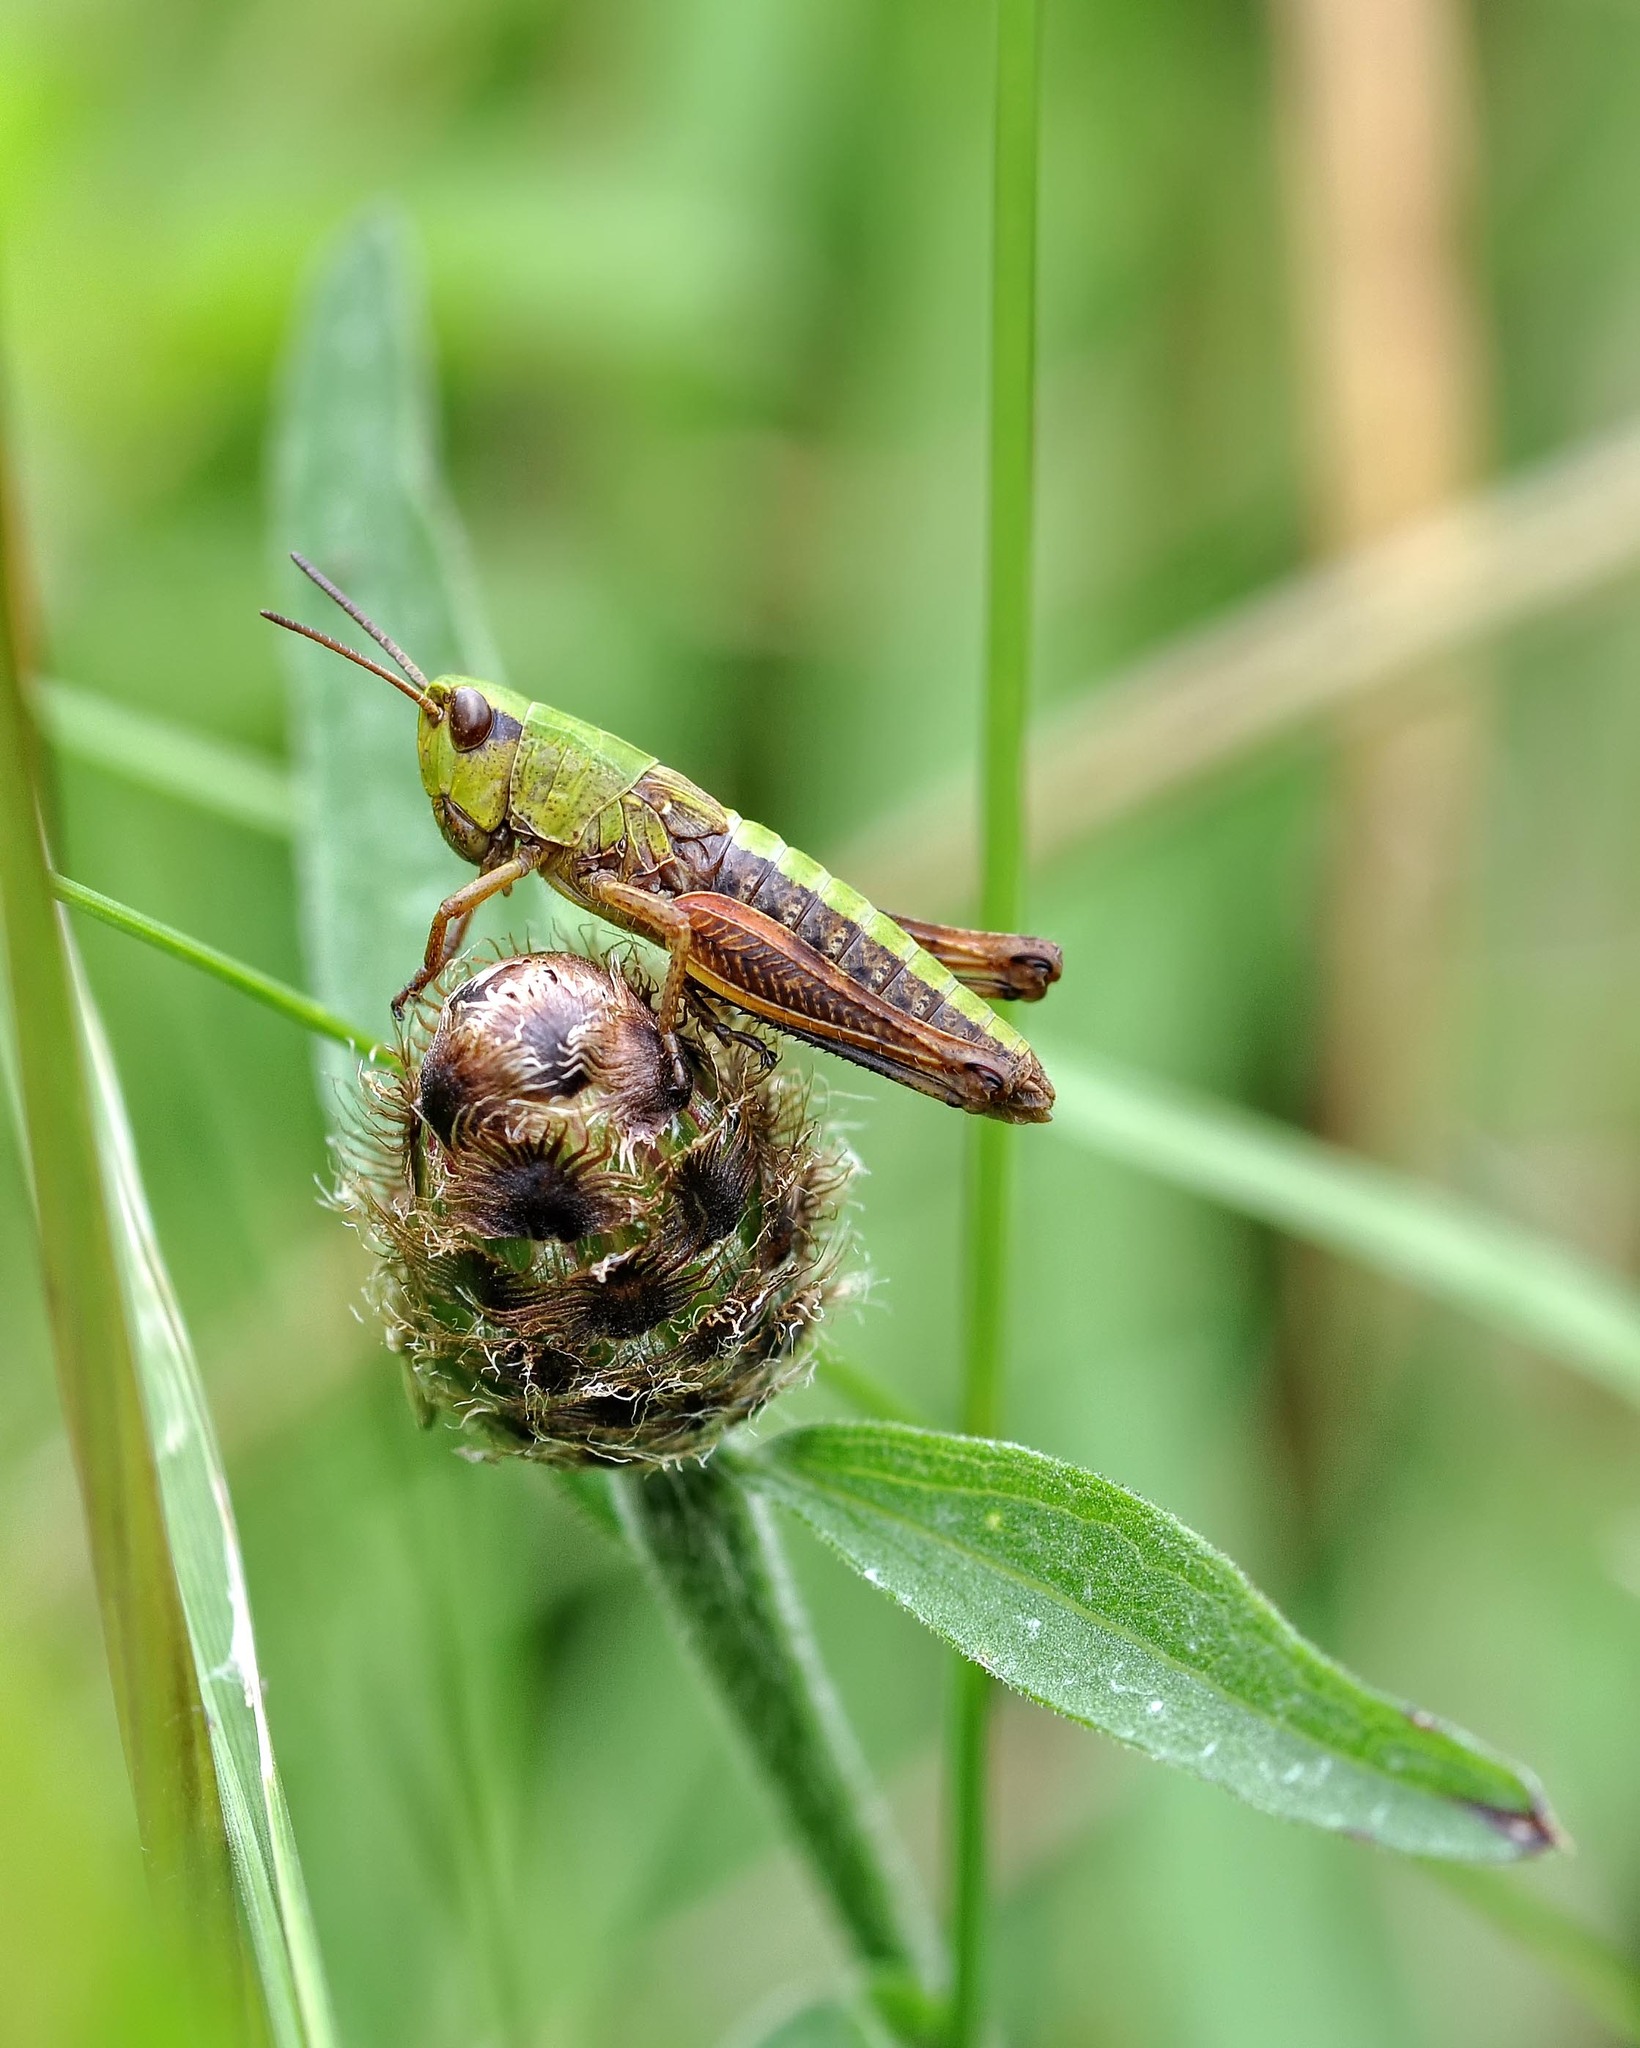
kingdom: Animalia
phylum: Arthropoda
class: Insecta
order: Orthoptera
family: Acrididae
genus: Pseudochorthippus
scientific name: Pseudochorthippus parallelus
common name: Meadow grasshopper
